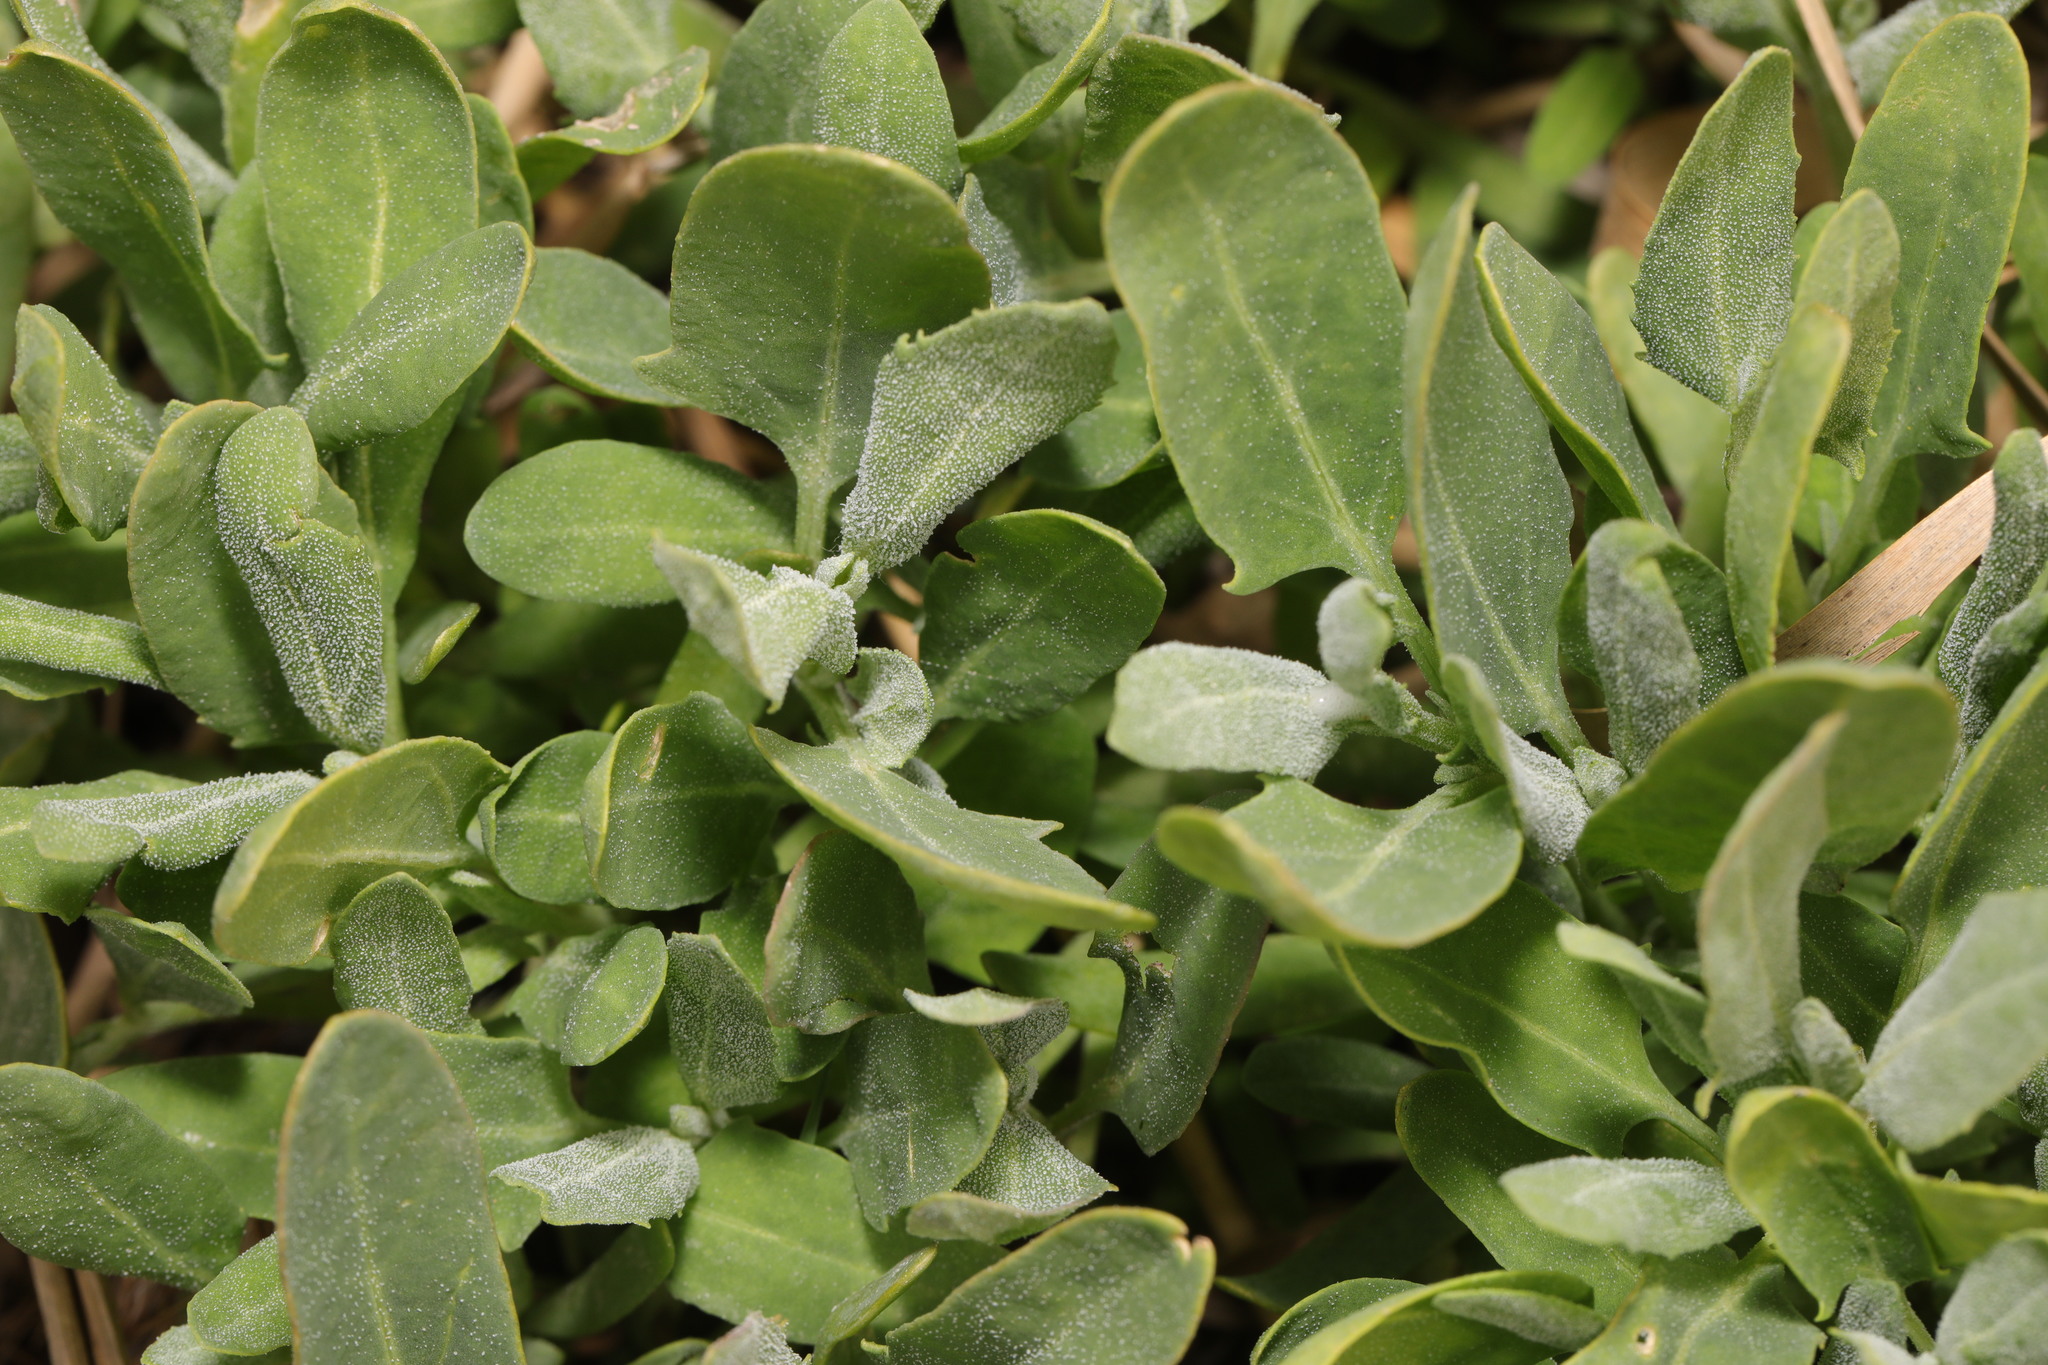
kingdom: Plantae
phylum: Tracheophyta
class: Magnoliopsida
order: Caryophyllales
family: Amaranthaceae
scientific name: Amaranthaceae
